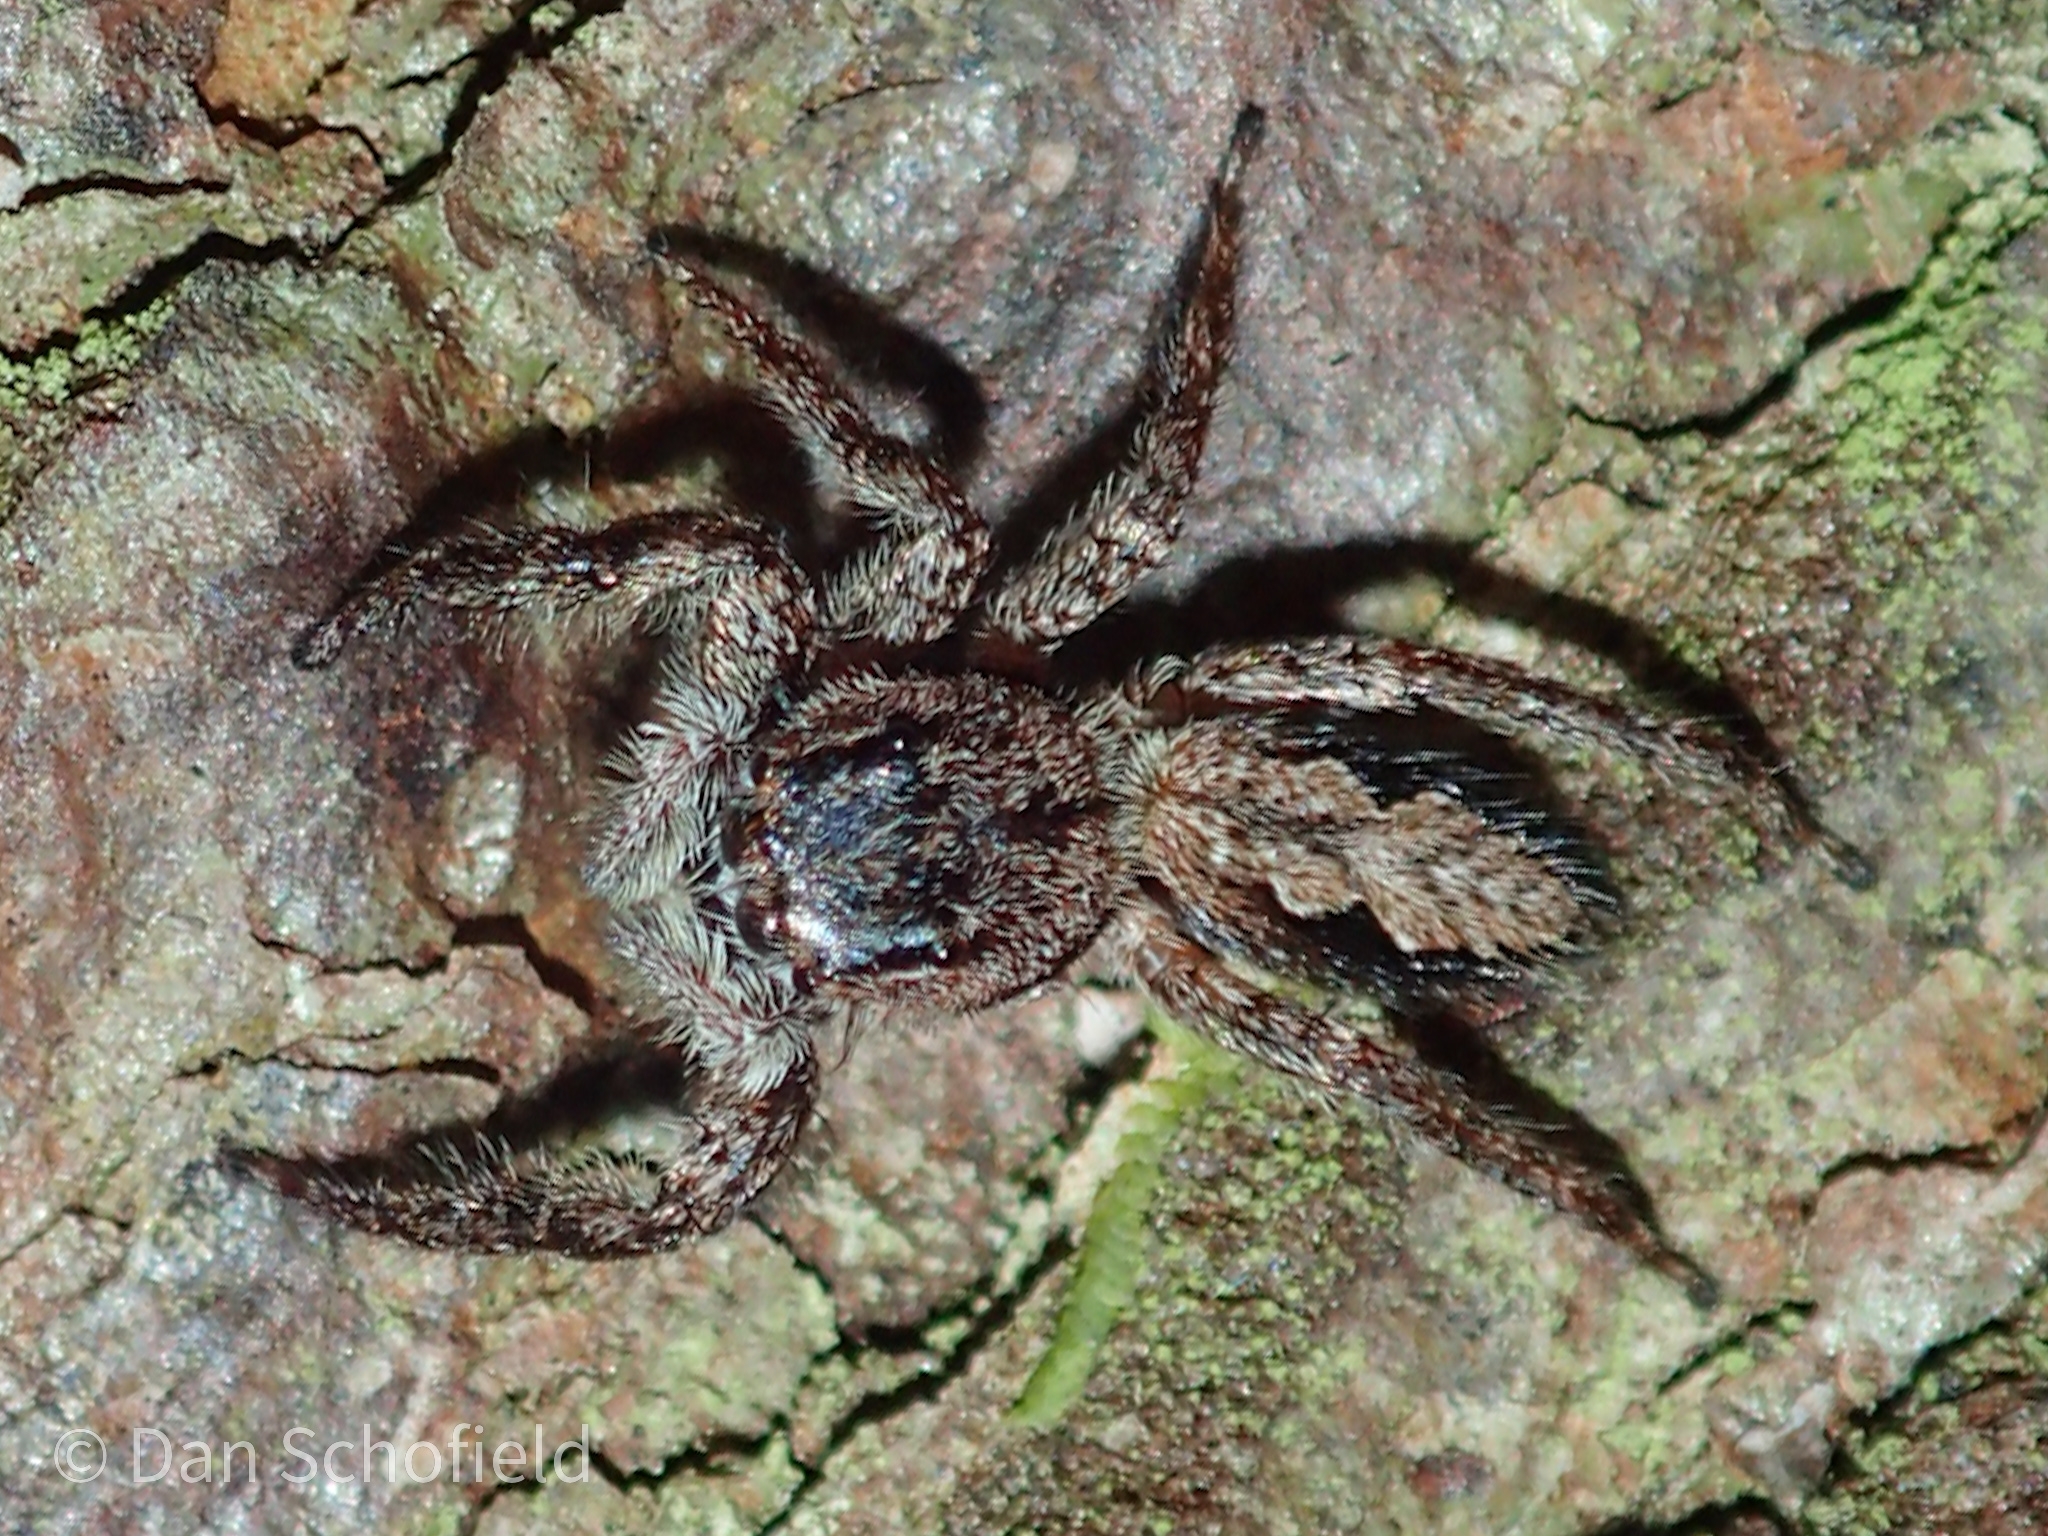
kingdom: Animalia
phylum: Arthropoda
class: Arachnida
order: Araneae
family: Salticidae
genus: Platycryptus
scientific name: Platycryptus undatus
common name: Tan jumping spider
